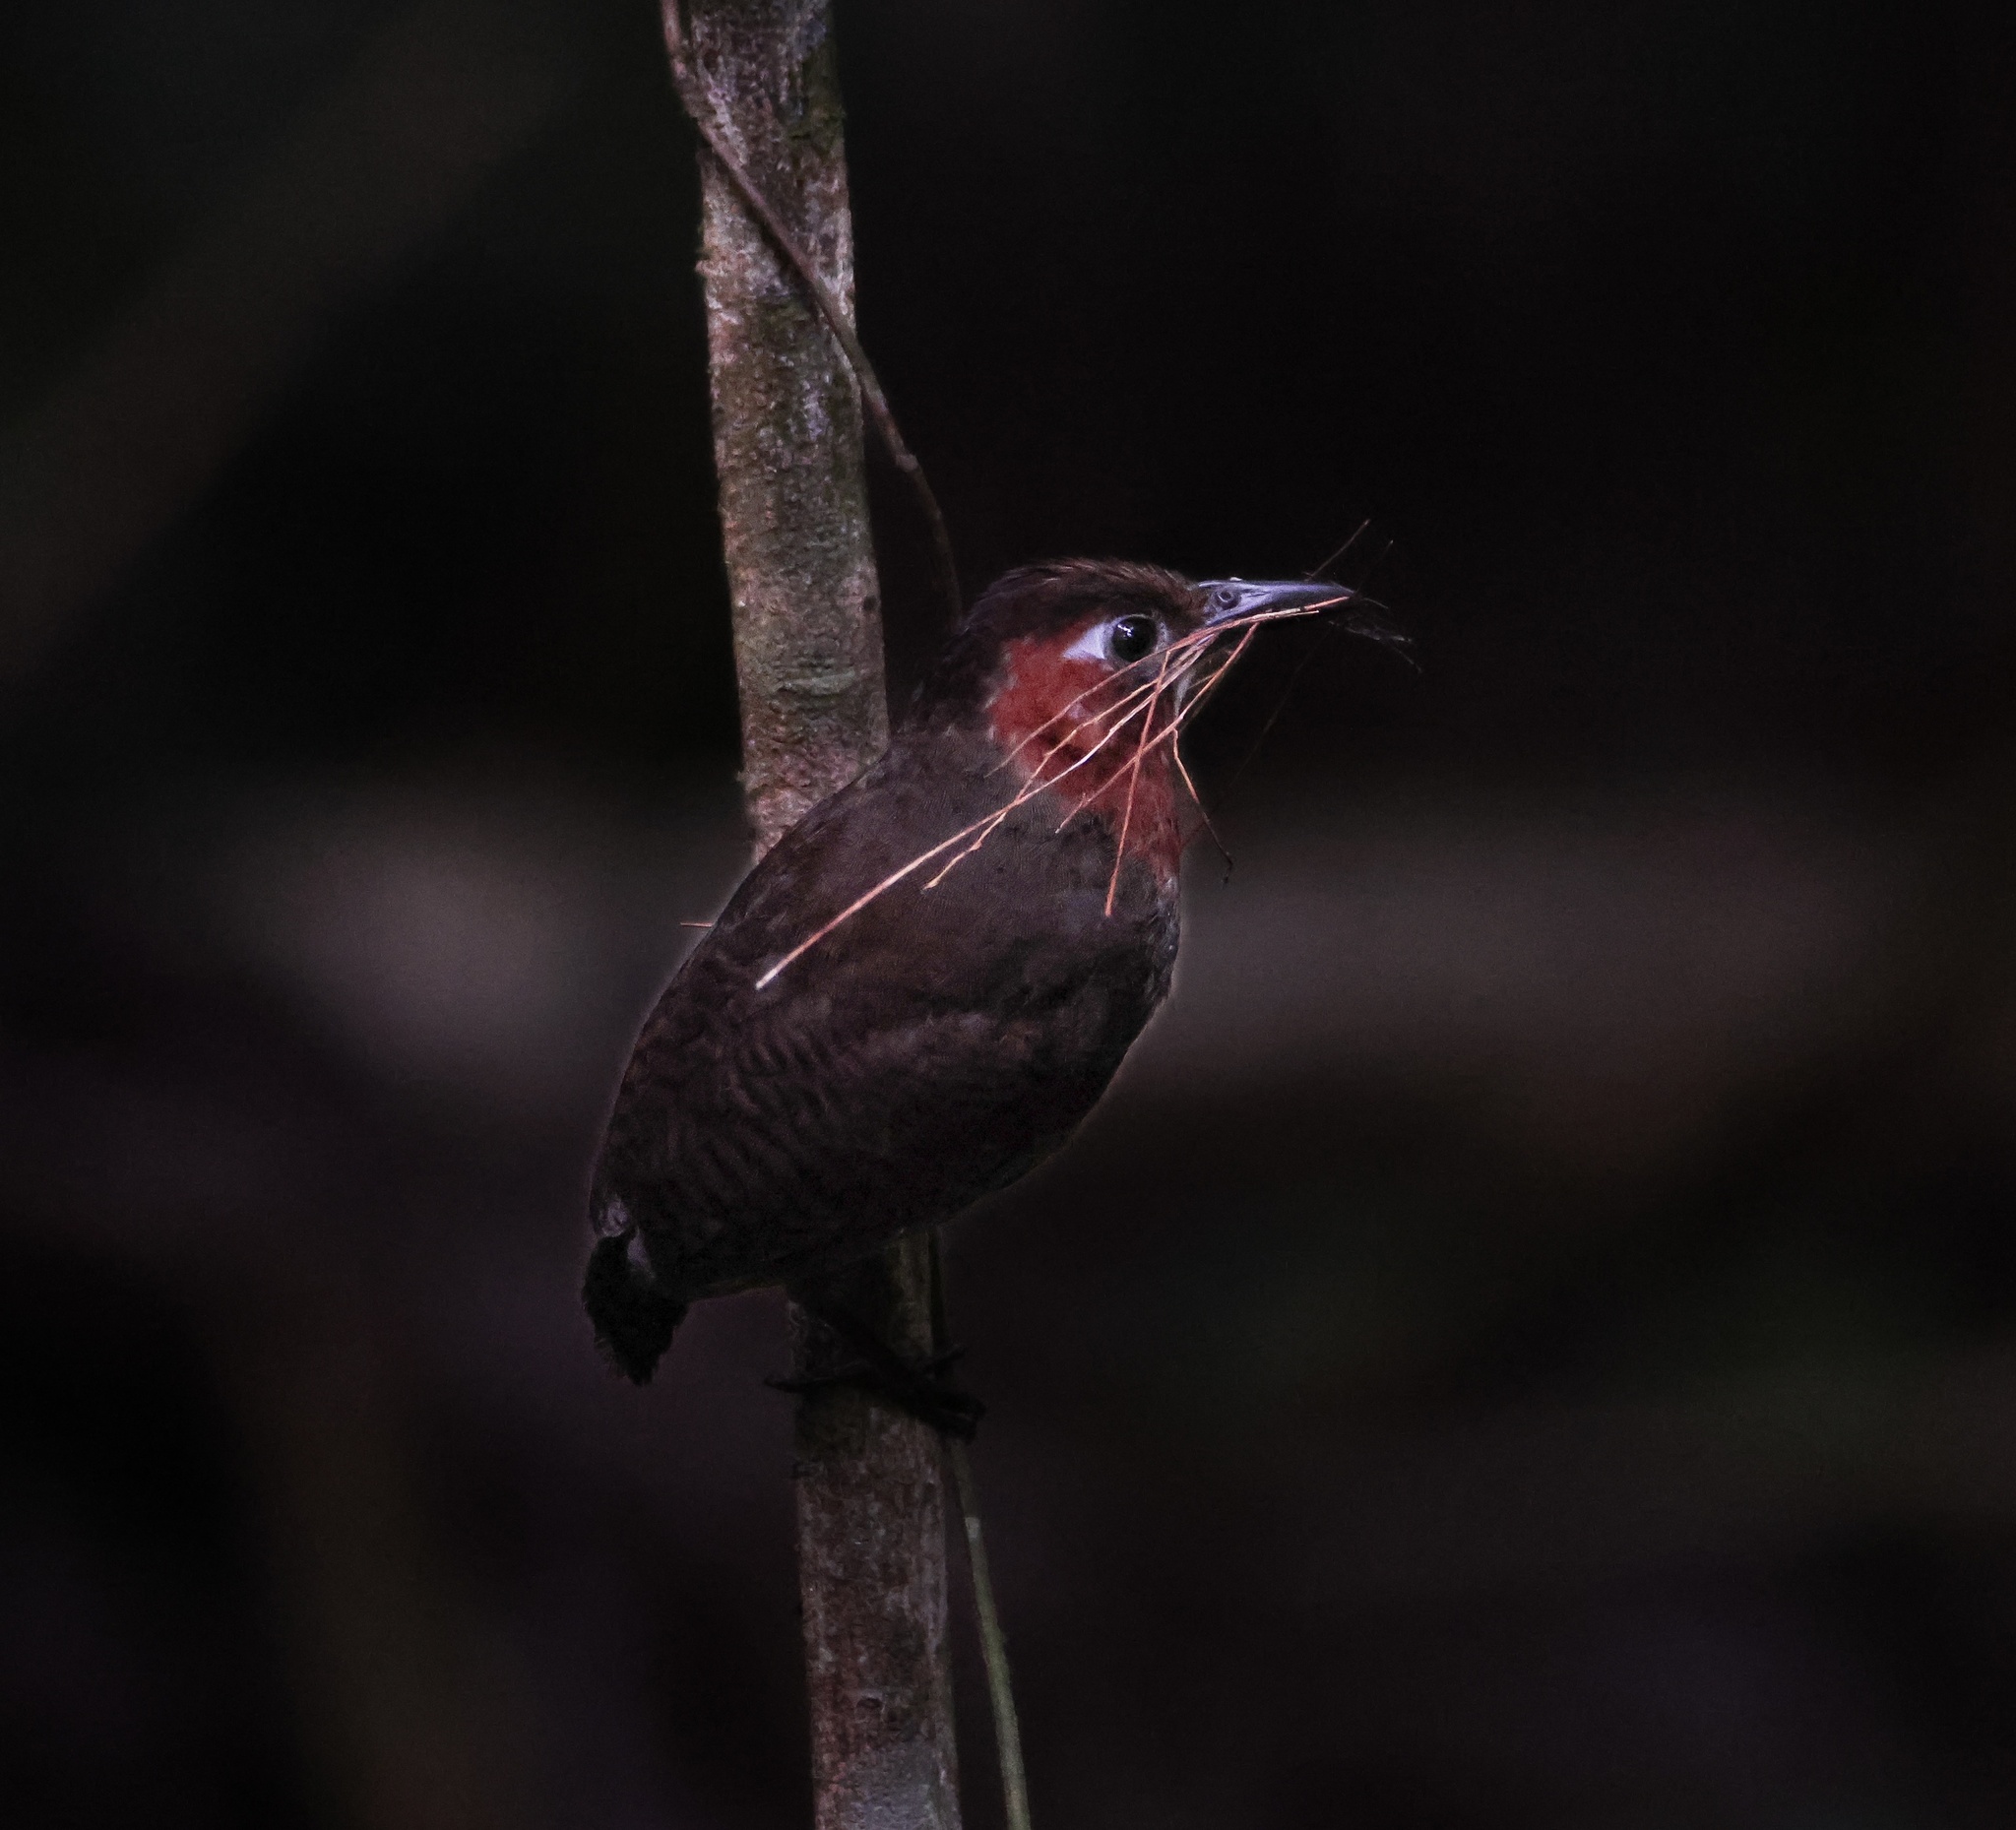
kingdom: Animalia
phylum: Chordata
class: Aves
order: Passeriformes
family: Troglodytidae
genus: Cyphorhinus
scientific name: Cyphorhinus phaeocephalus
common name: Song wren
